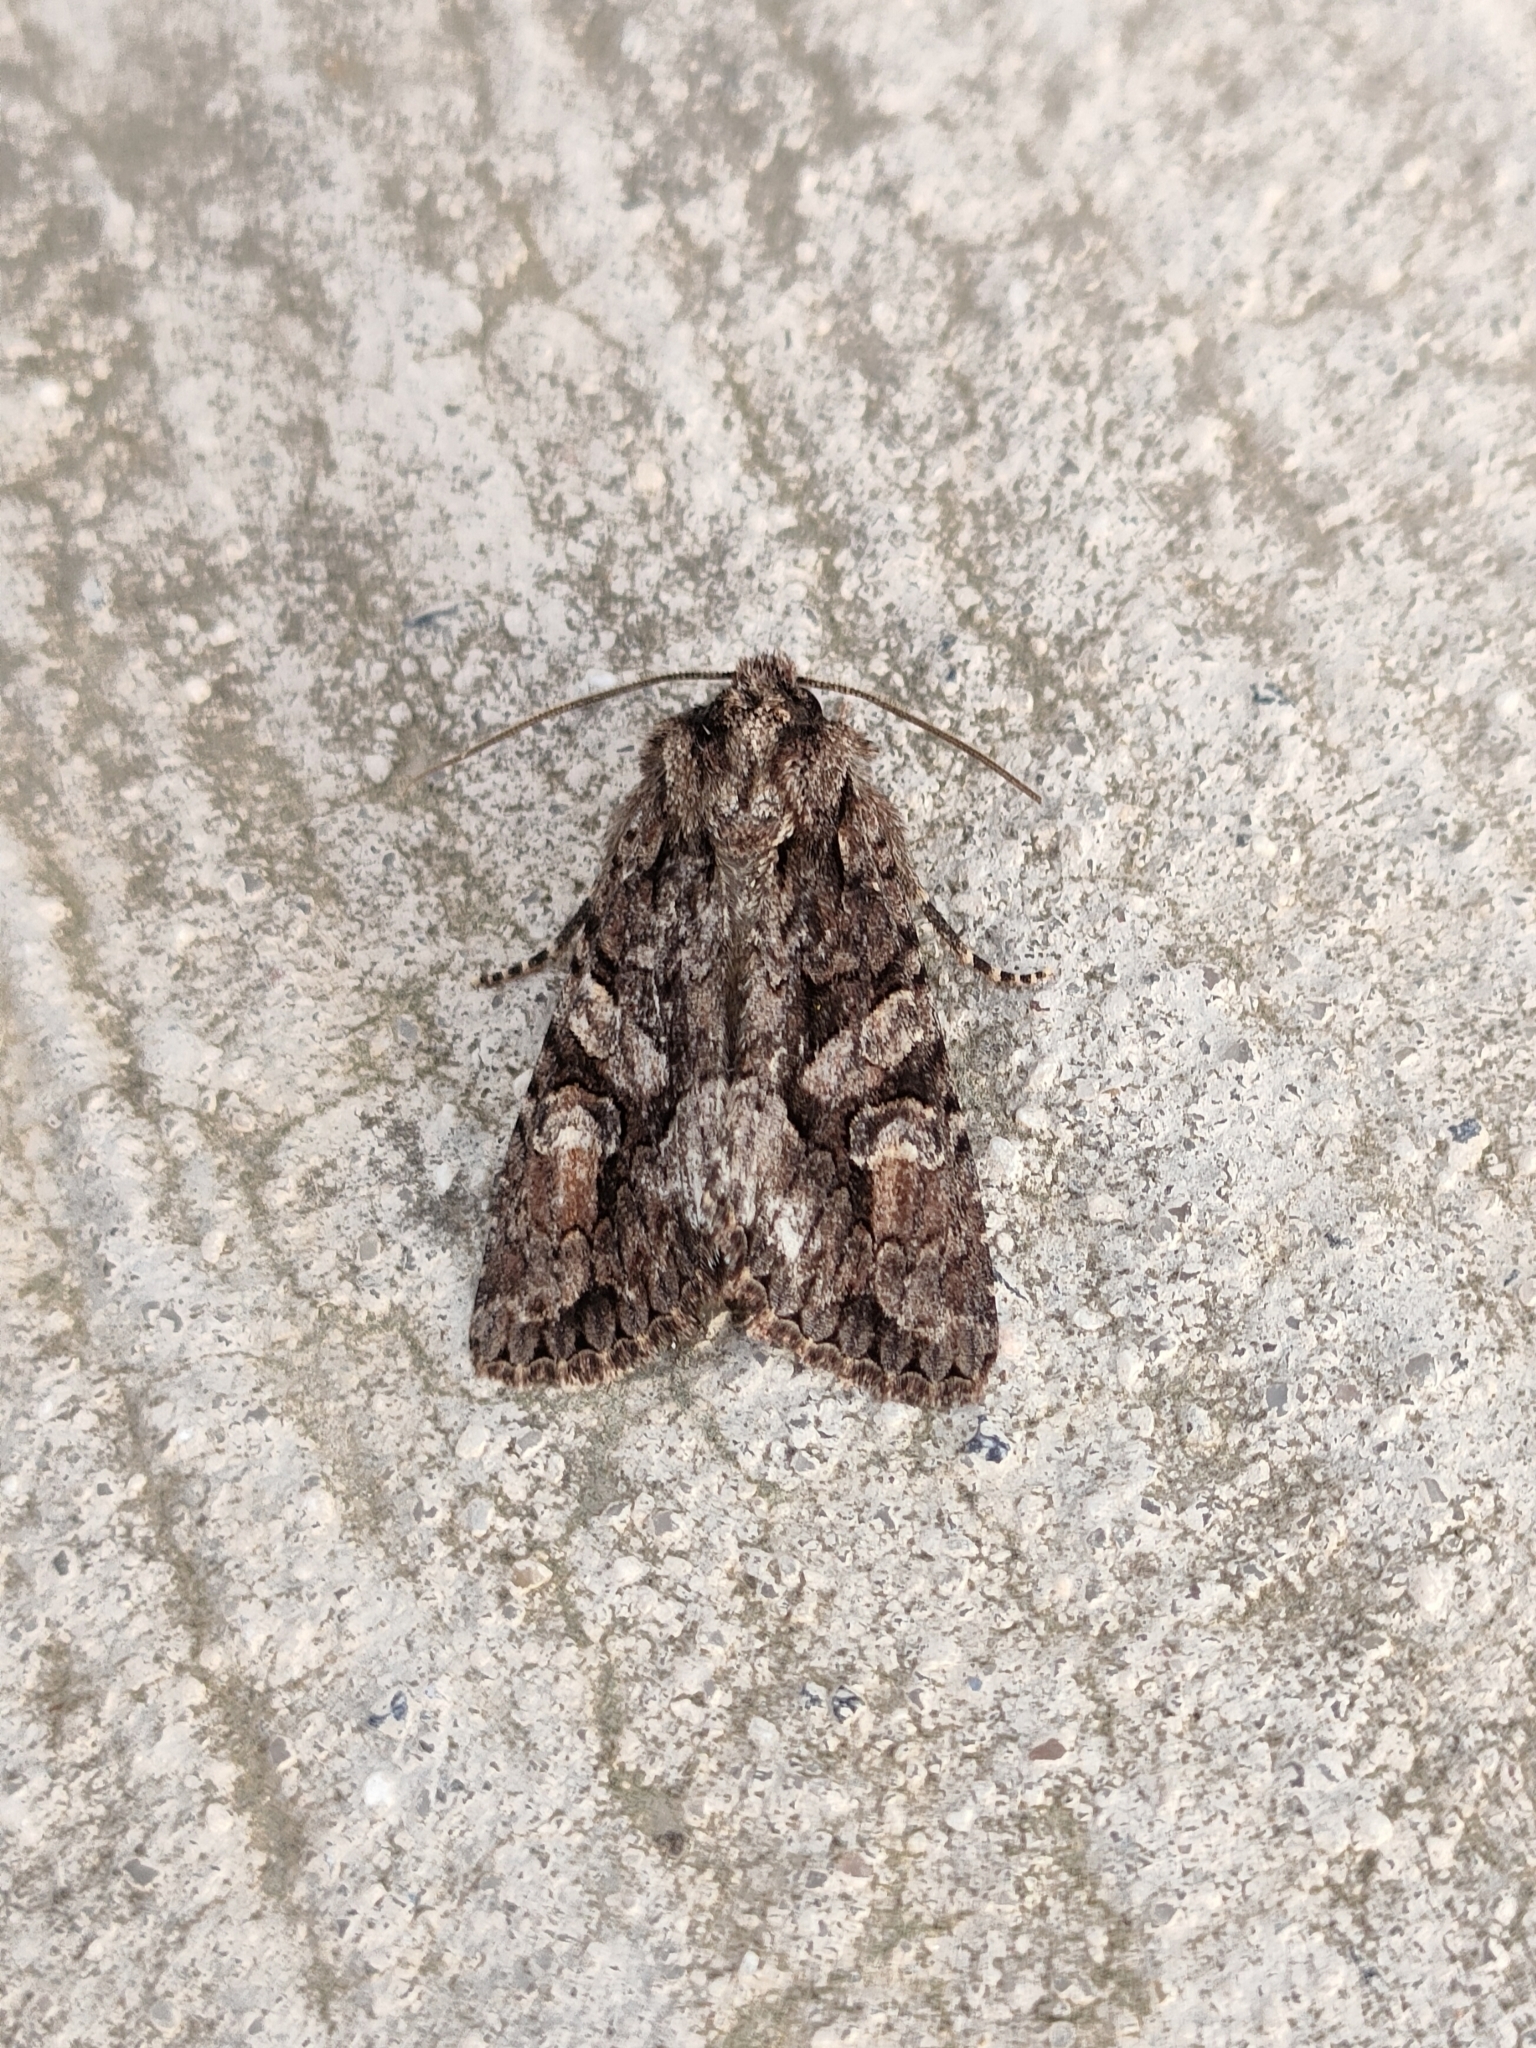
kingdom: Animalia
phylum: Arthropoda
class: Insecta
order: Lepidoptera
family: Noctuidae
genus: Dryobotodes
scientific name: Dryobotodes tenebrosa
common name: Sombre brocade
